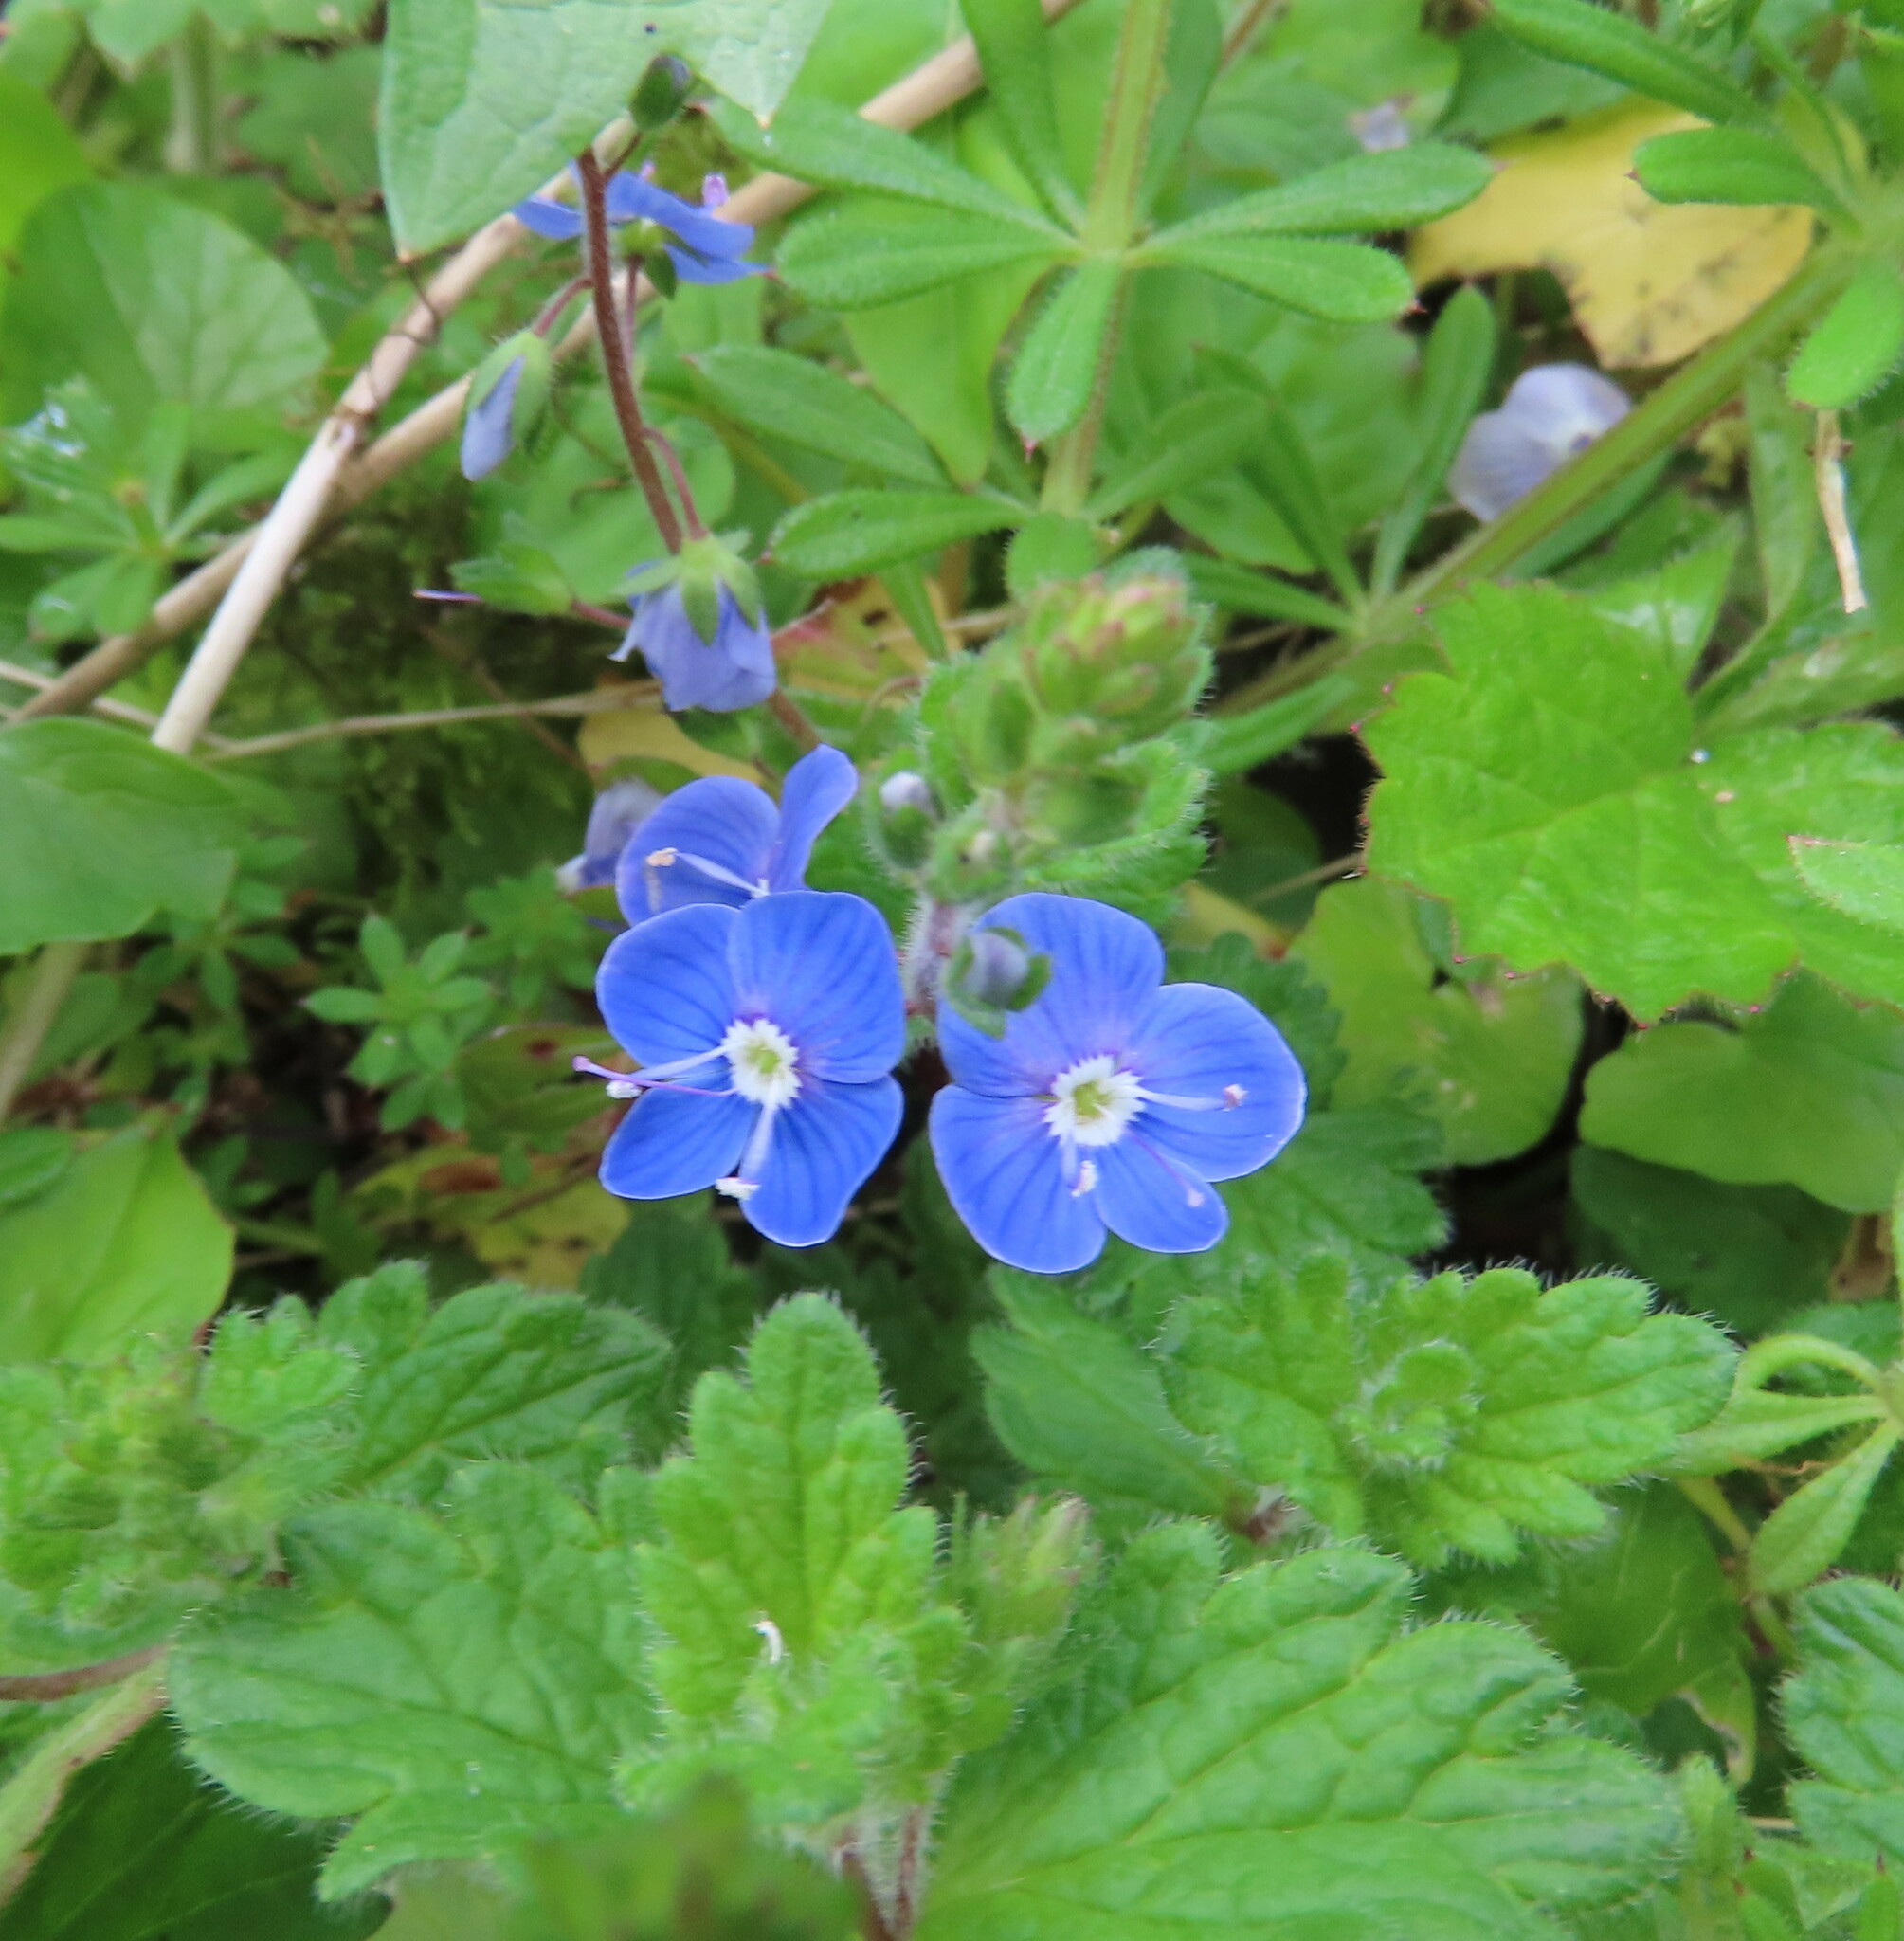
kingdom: Plantae
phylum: Tracheophyta
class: Magnoliopsida
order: Lamiales
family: Plantaginaceae
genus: Veronica
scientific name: Veronica chamaedrys
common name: Germander speedwell
